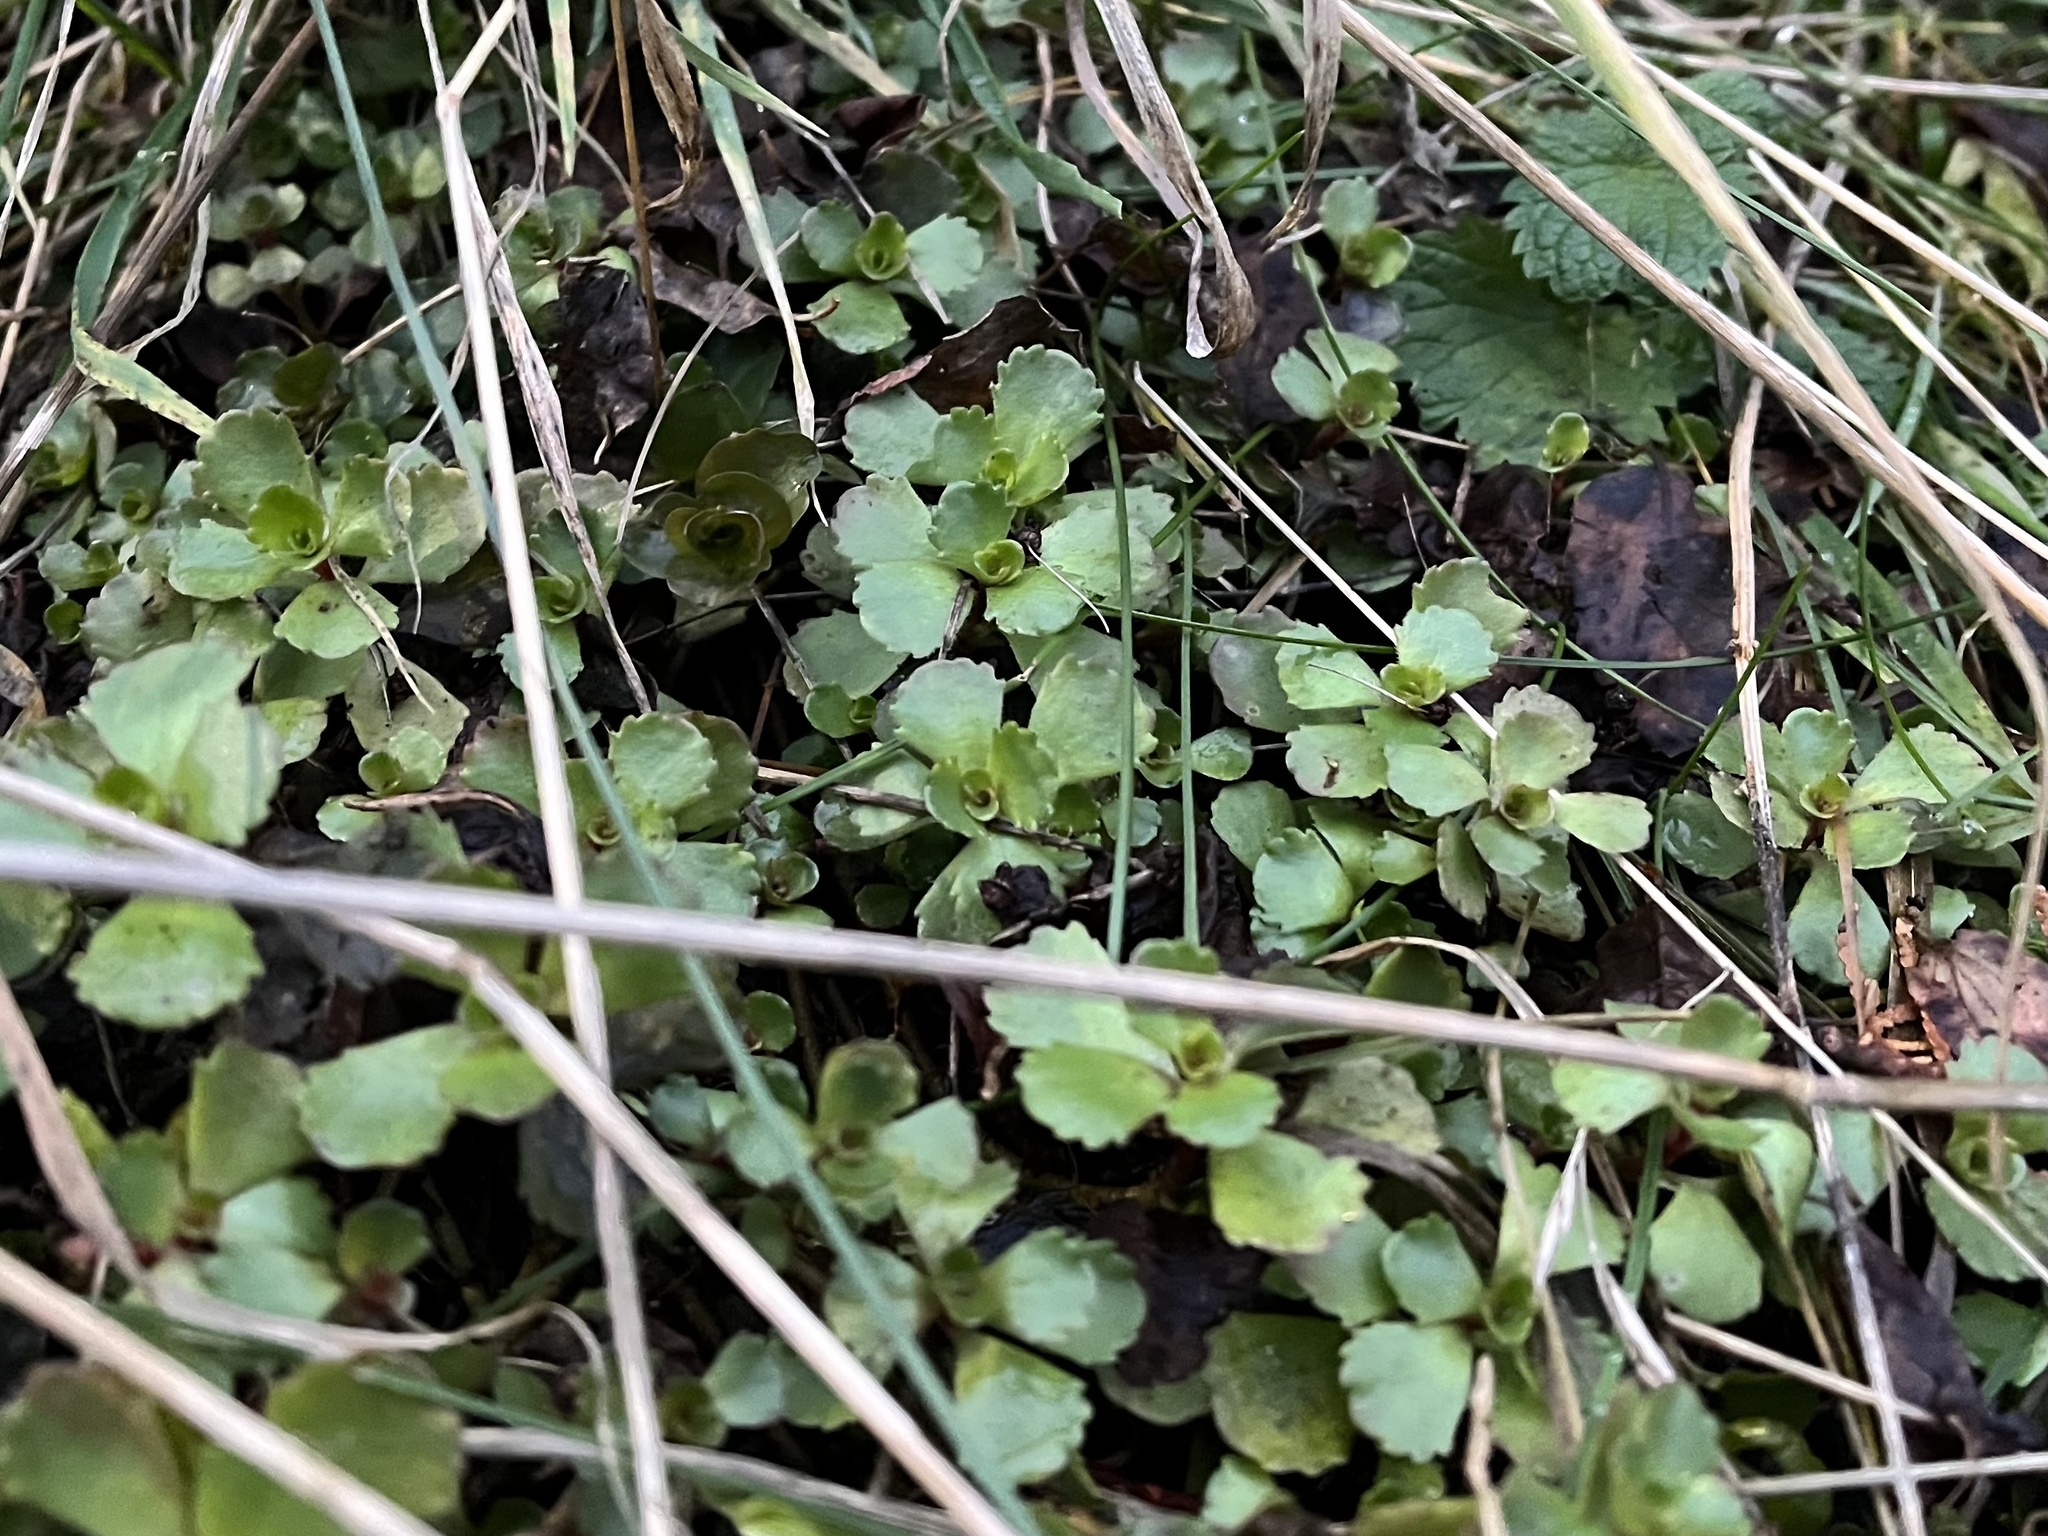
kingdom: Plantae
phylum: Tracheophyta
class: Magnoliopsida
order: Saxifragales
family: Crassulaceae
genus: Phedimus
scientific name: Phedimus spurius
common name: Caucasian stonecrop
